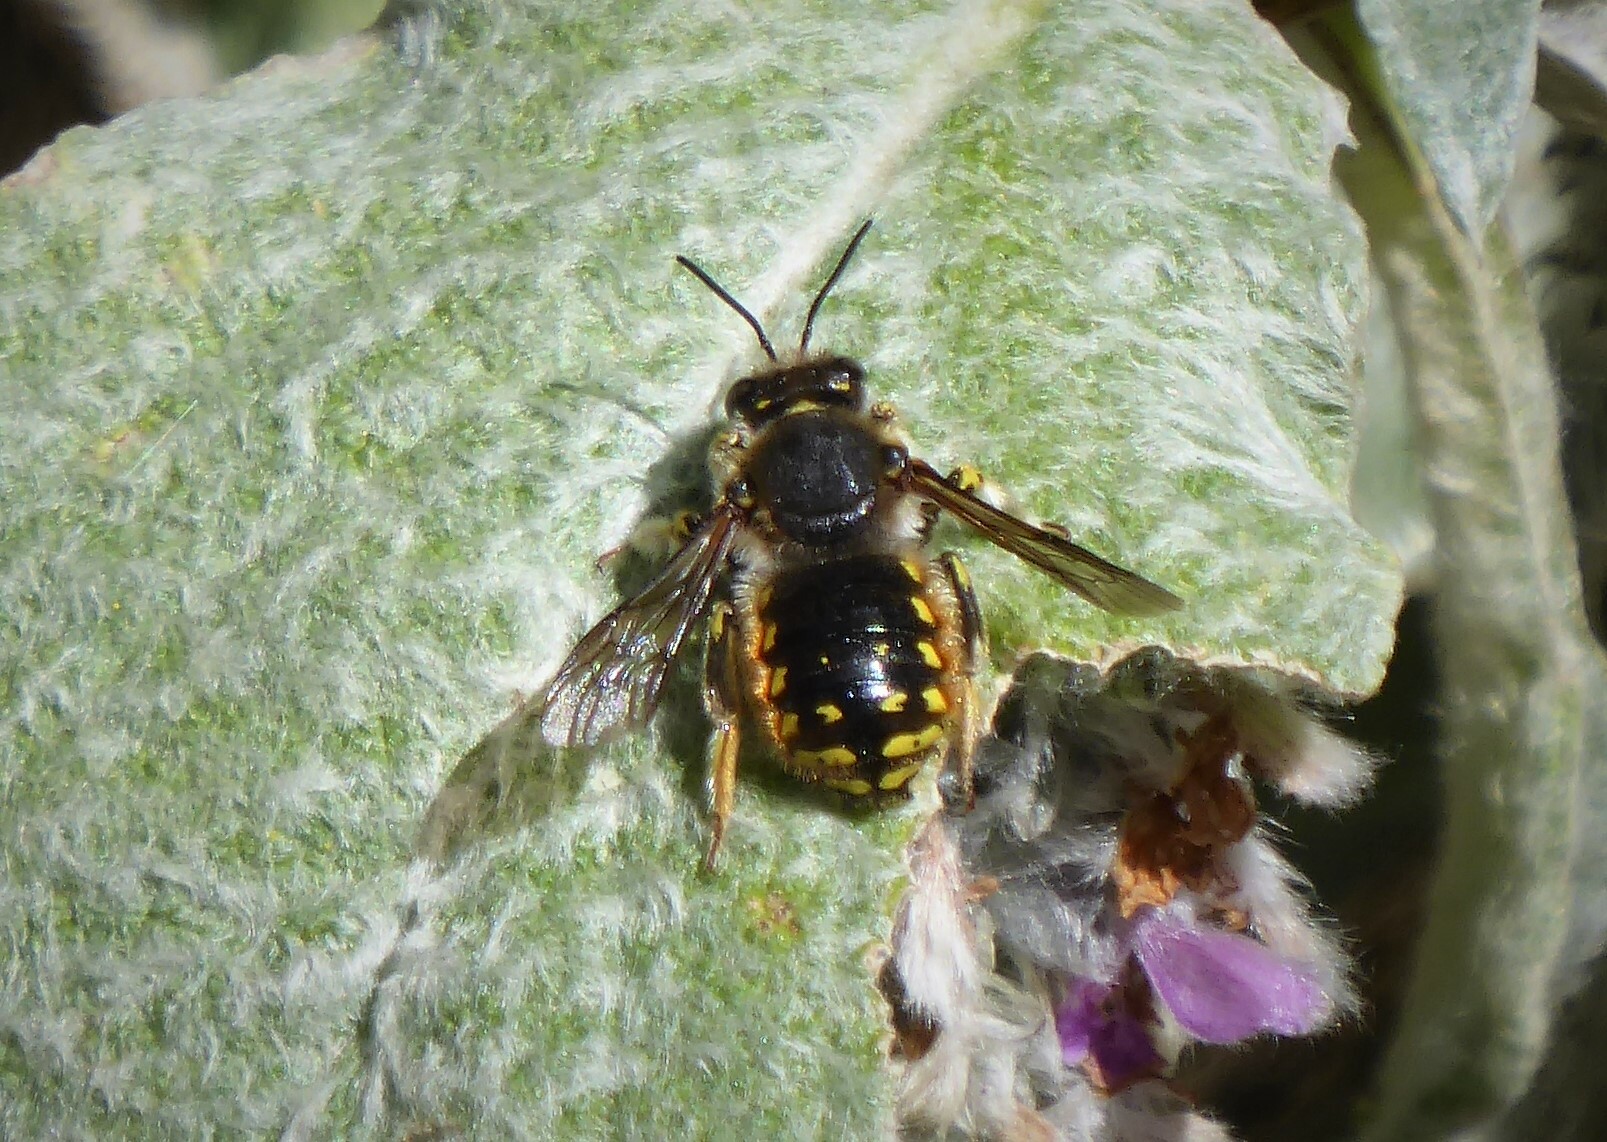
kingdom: Animalia
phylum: Arthropoda
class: Insecta
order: Hymenoptera
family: Megachilidae
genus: Anthidium
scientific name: Anthidium manicatum
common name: Wool carder bee
